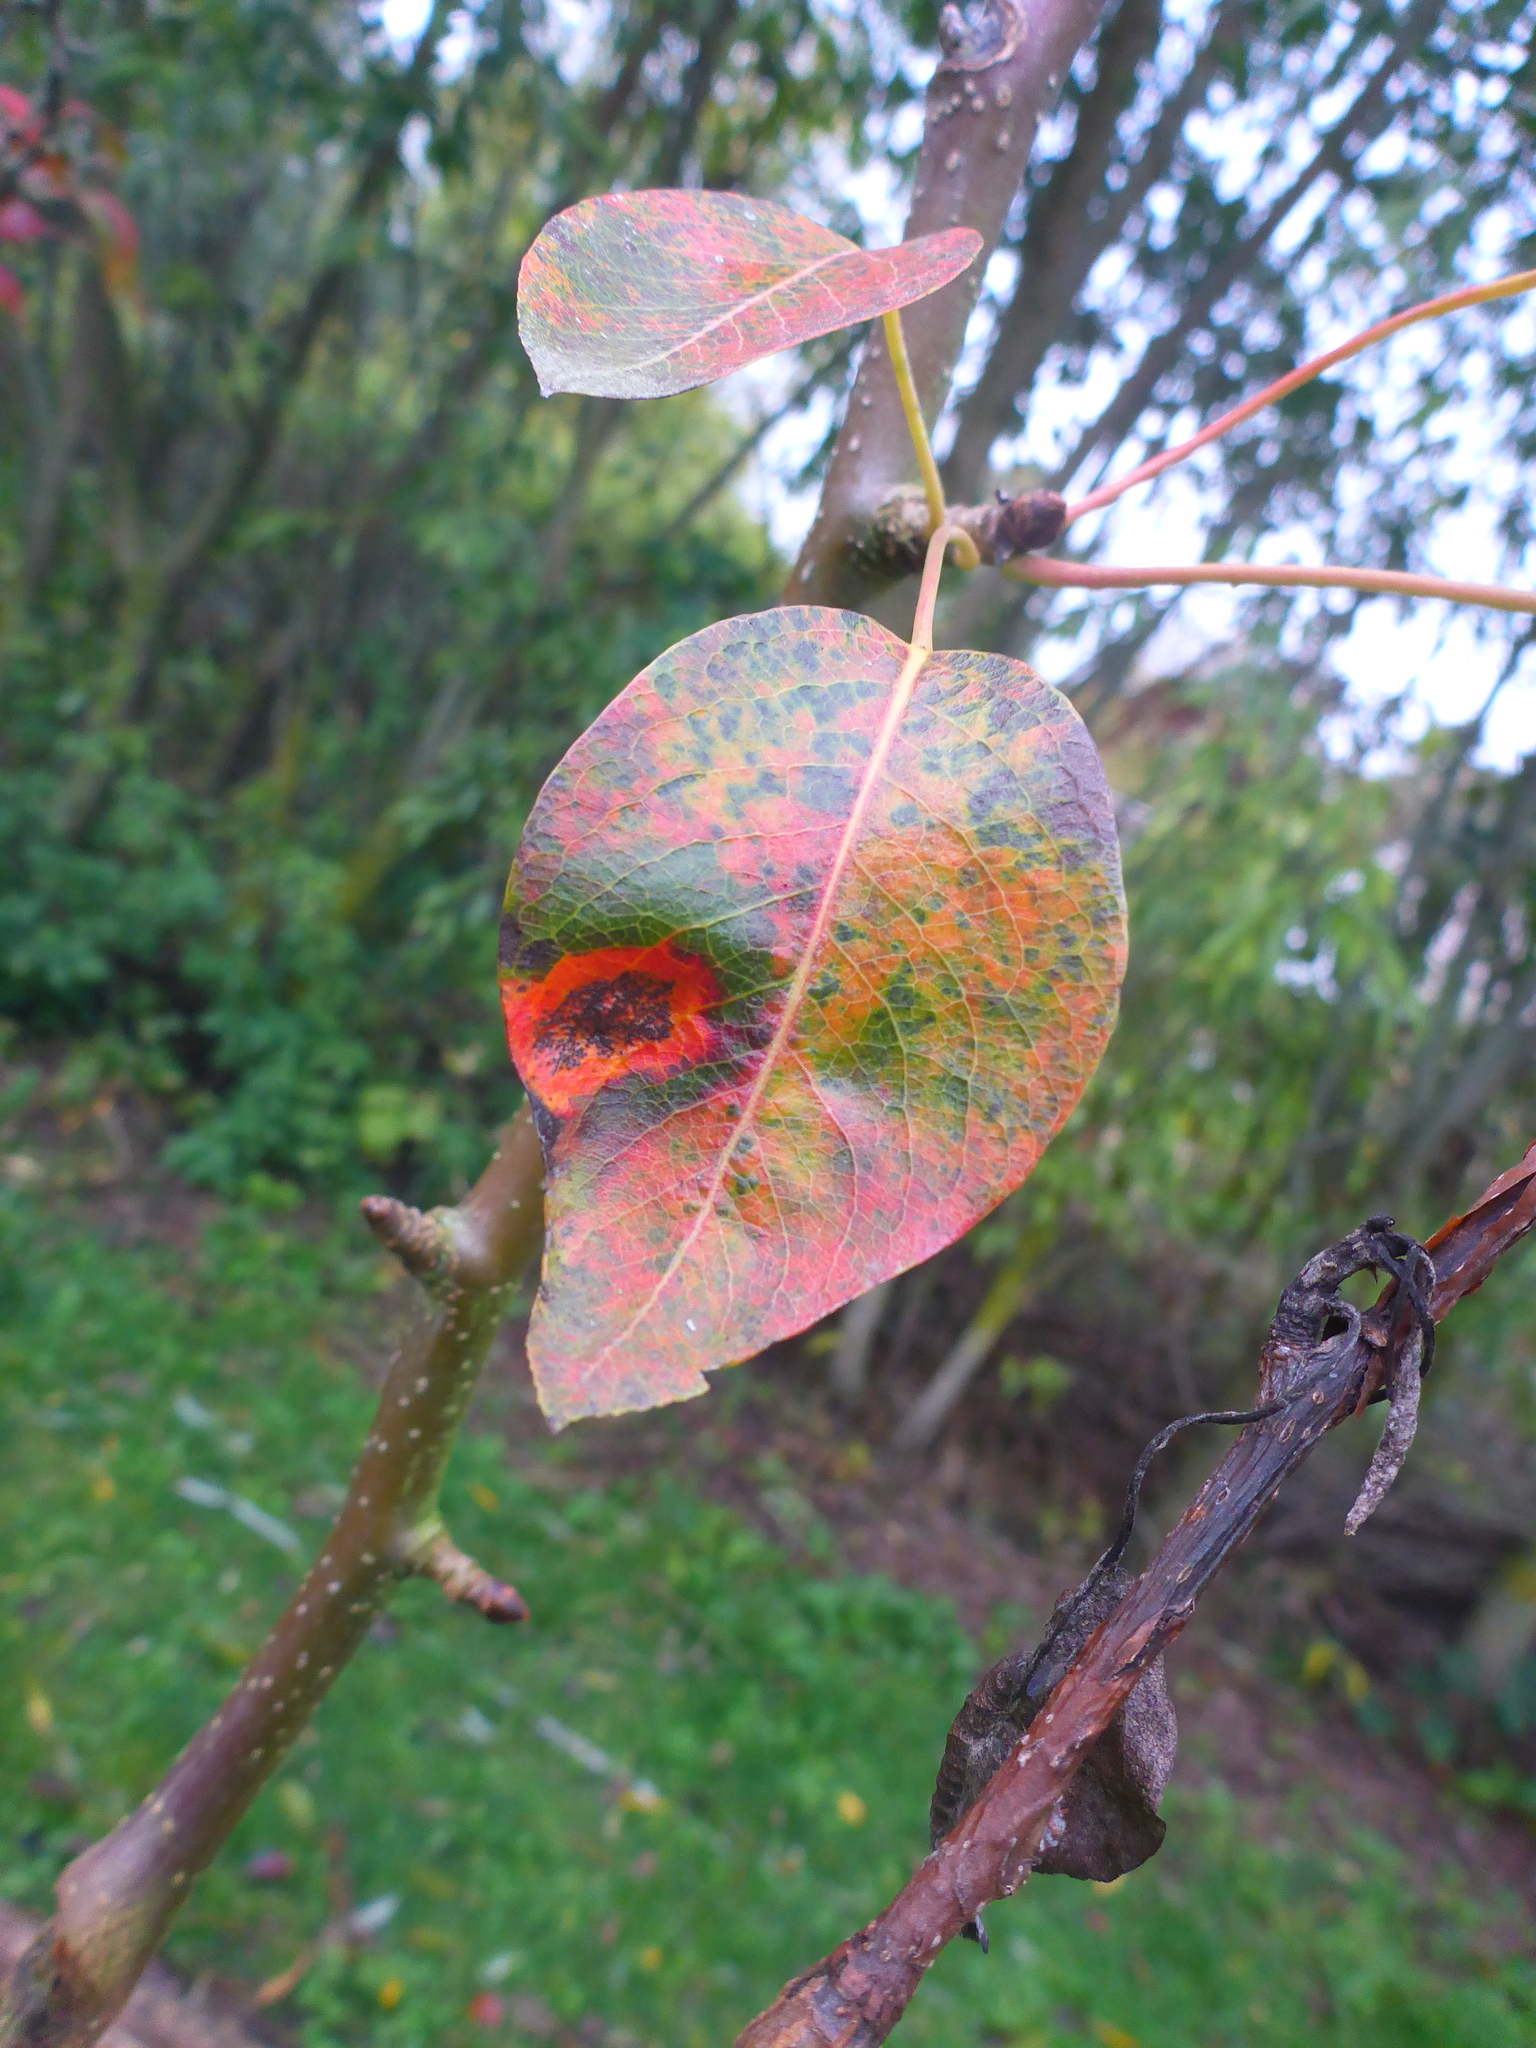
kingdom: Fungi
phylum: Basidiomycota
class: Pucciniomycetes
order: Pucciniales
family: Gymnosporangiaceae
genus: Gymnosporangium
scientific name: Gymnosporangium sabinae
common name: Pear trellis rust fungus
